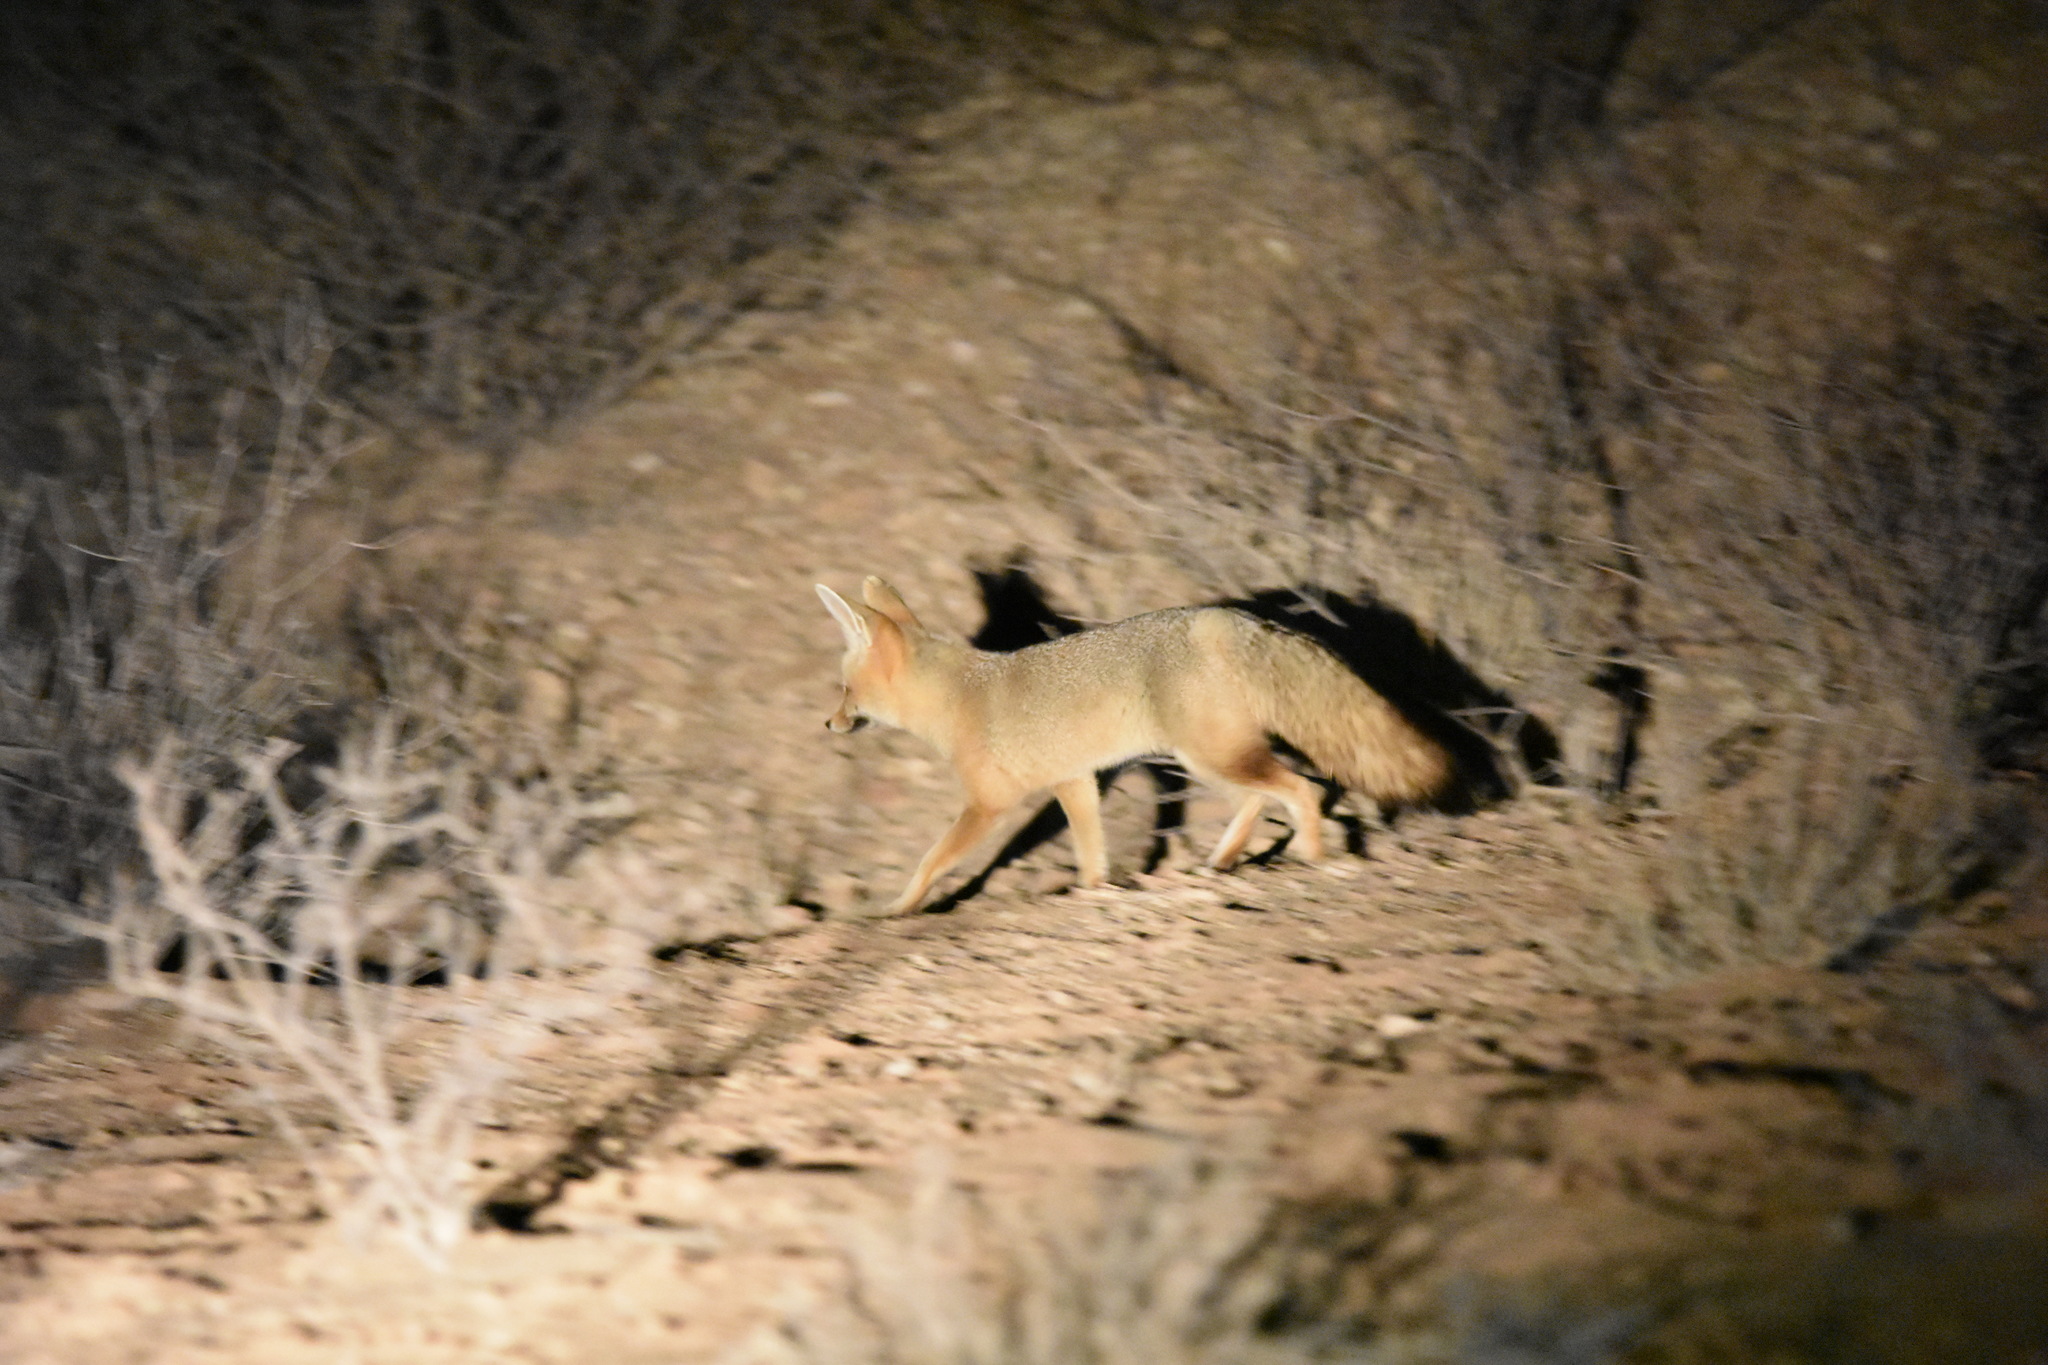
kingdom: Animalia
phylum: Chordata
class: Mammalia
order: Carnivora
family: Canidae
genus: Vulpes
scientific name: Vulpes chama
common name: Cape fox
